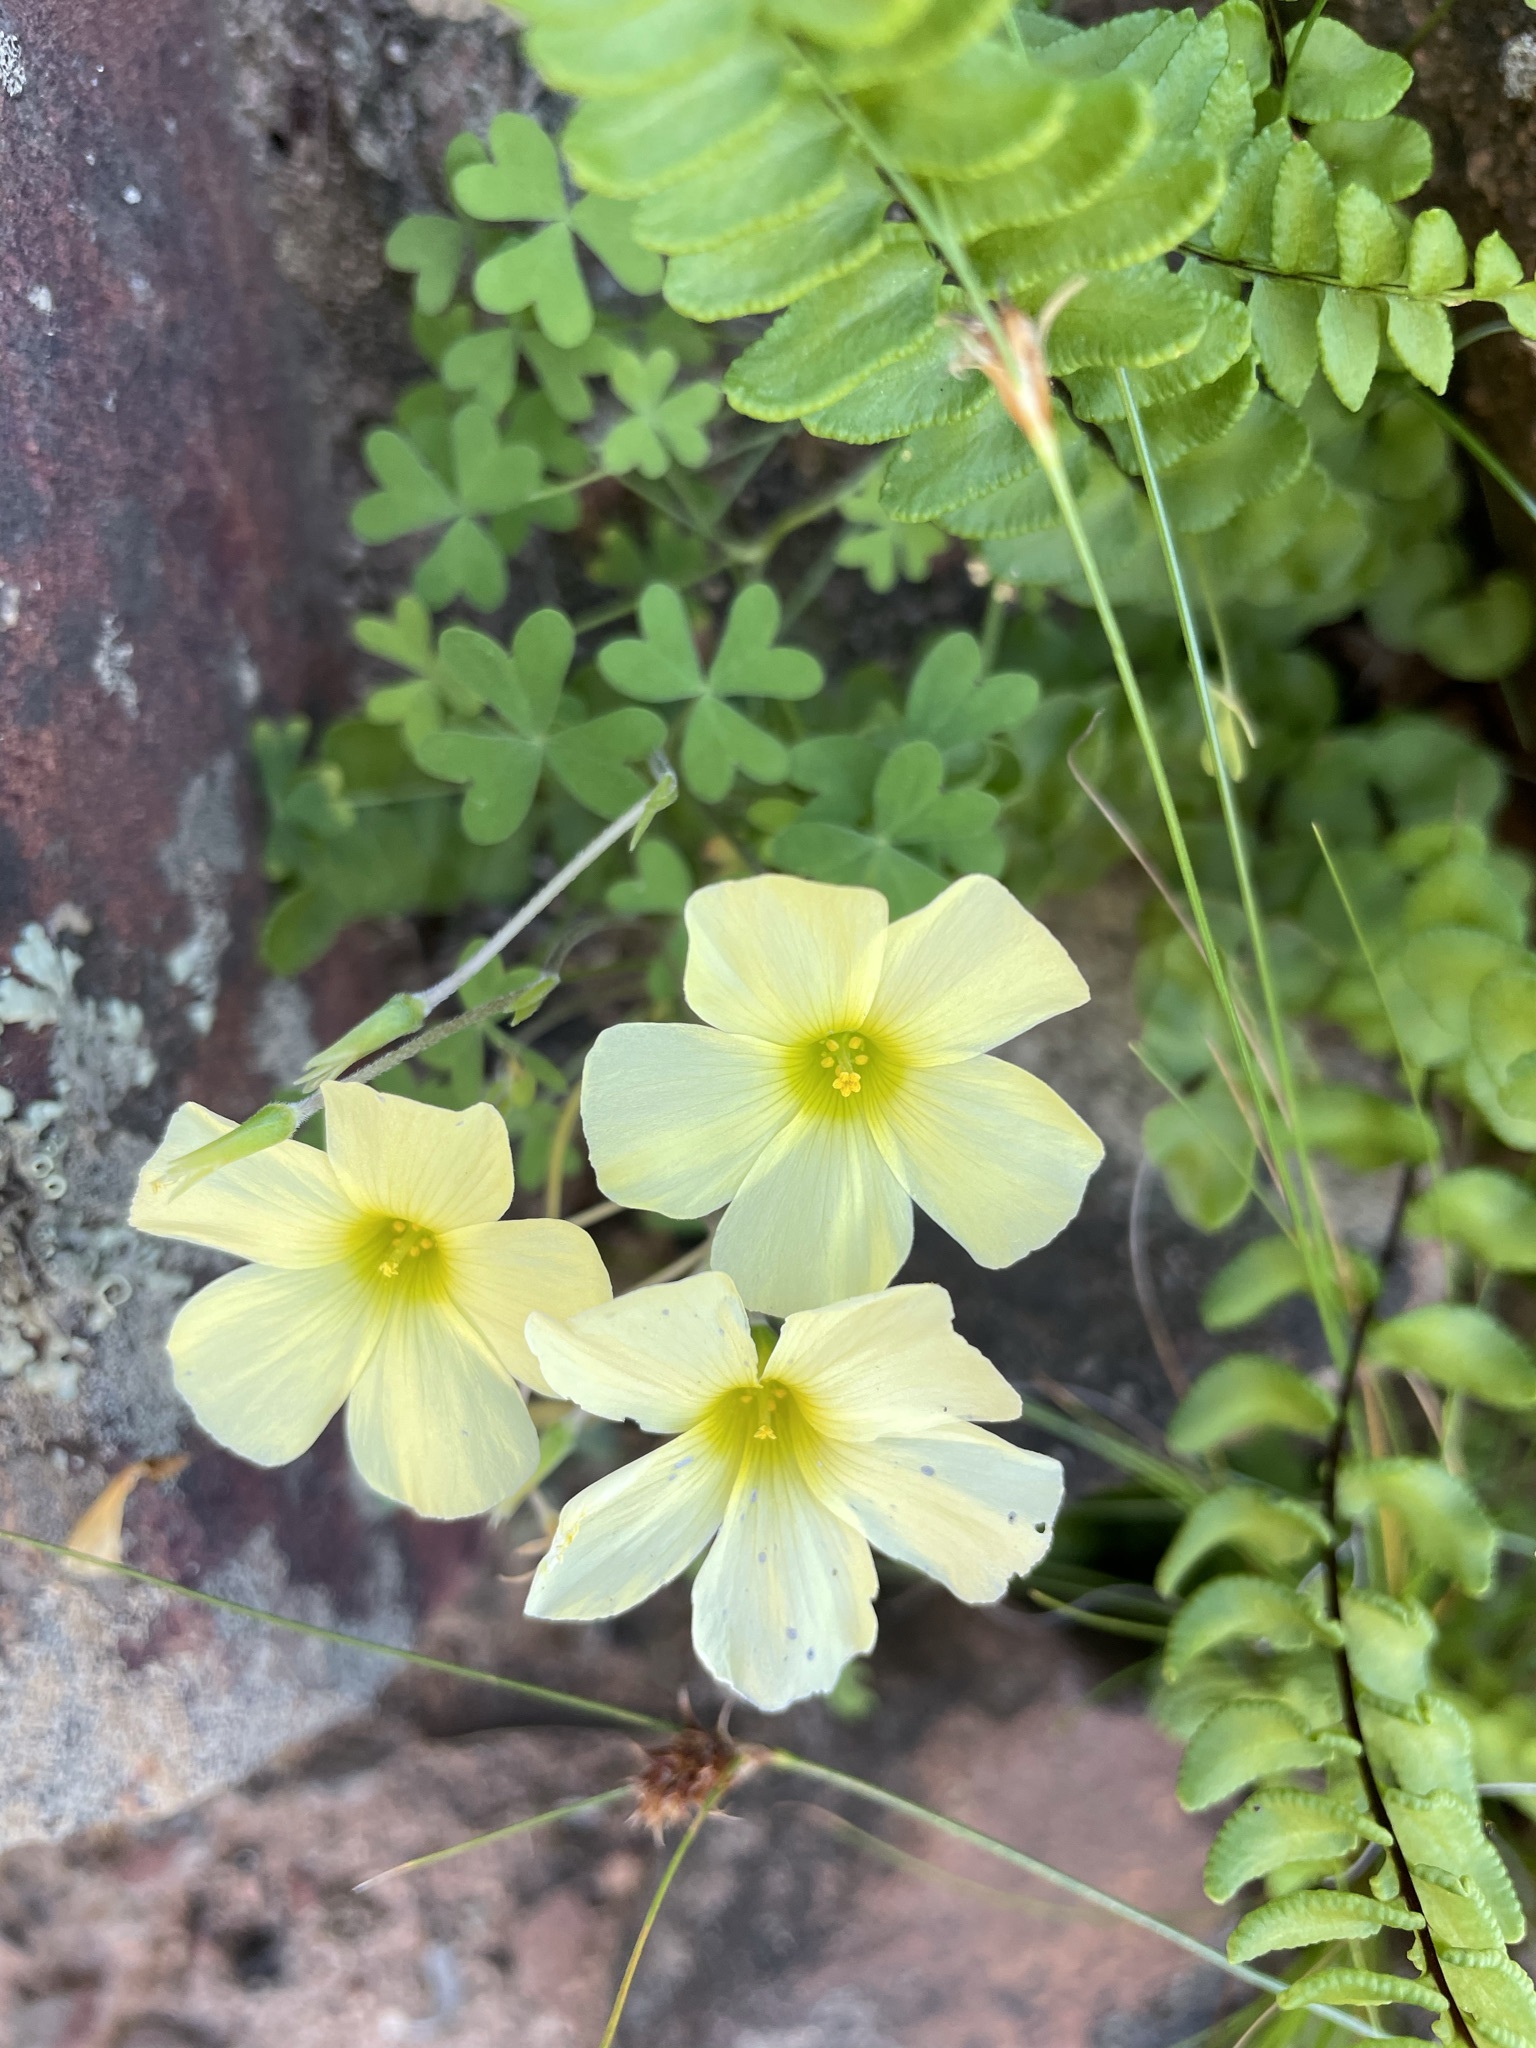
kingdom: Plantae
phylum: Tracheophyta
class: Magnoliopsida
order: Oxalidales
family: Oxalidaceae
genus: Oxalis
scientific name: Oxalis obtusa
